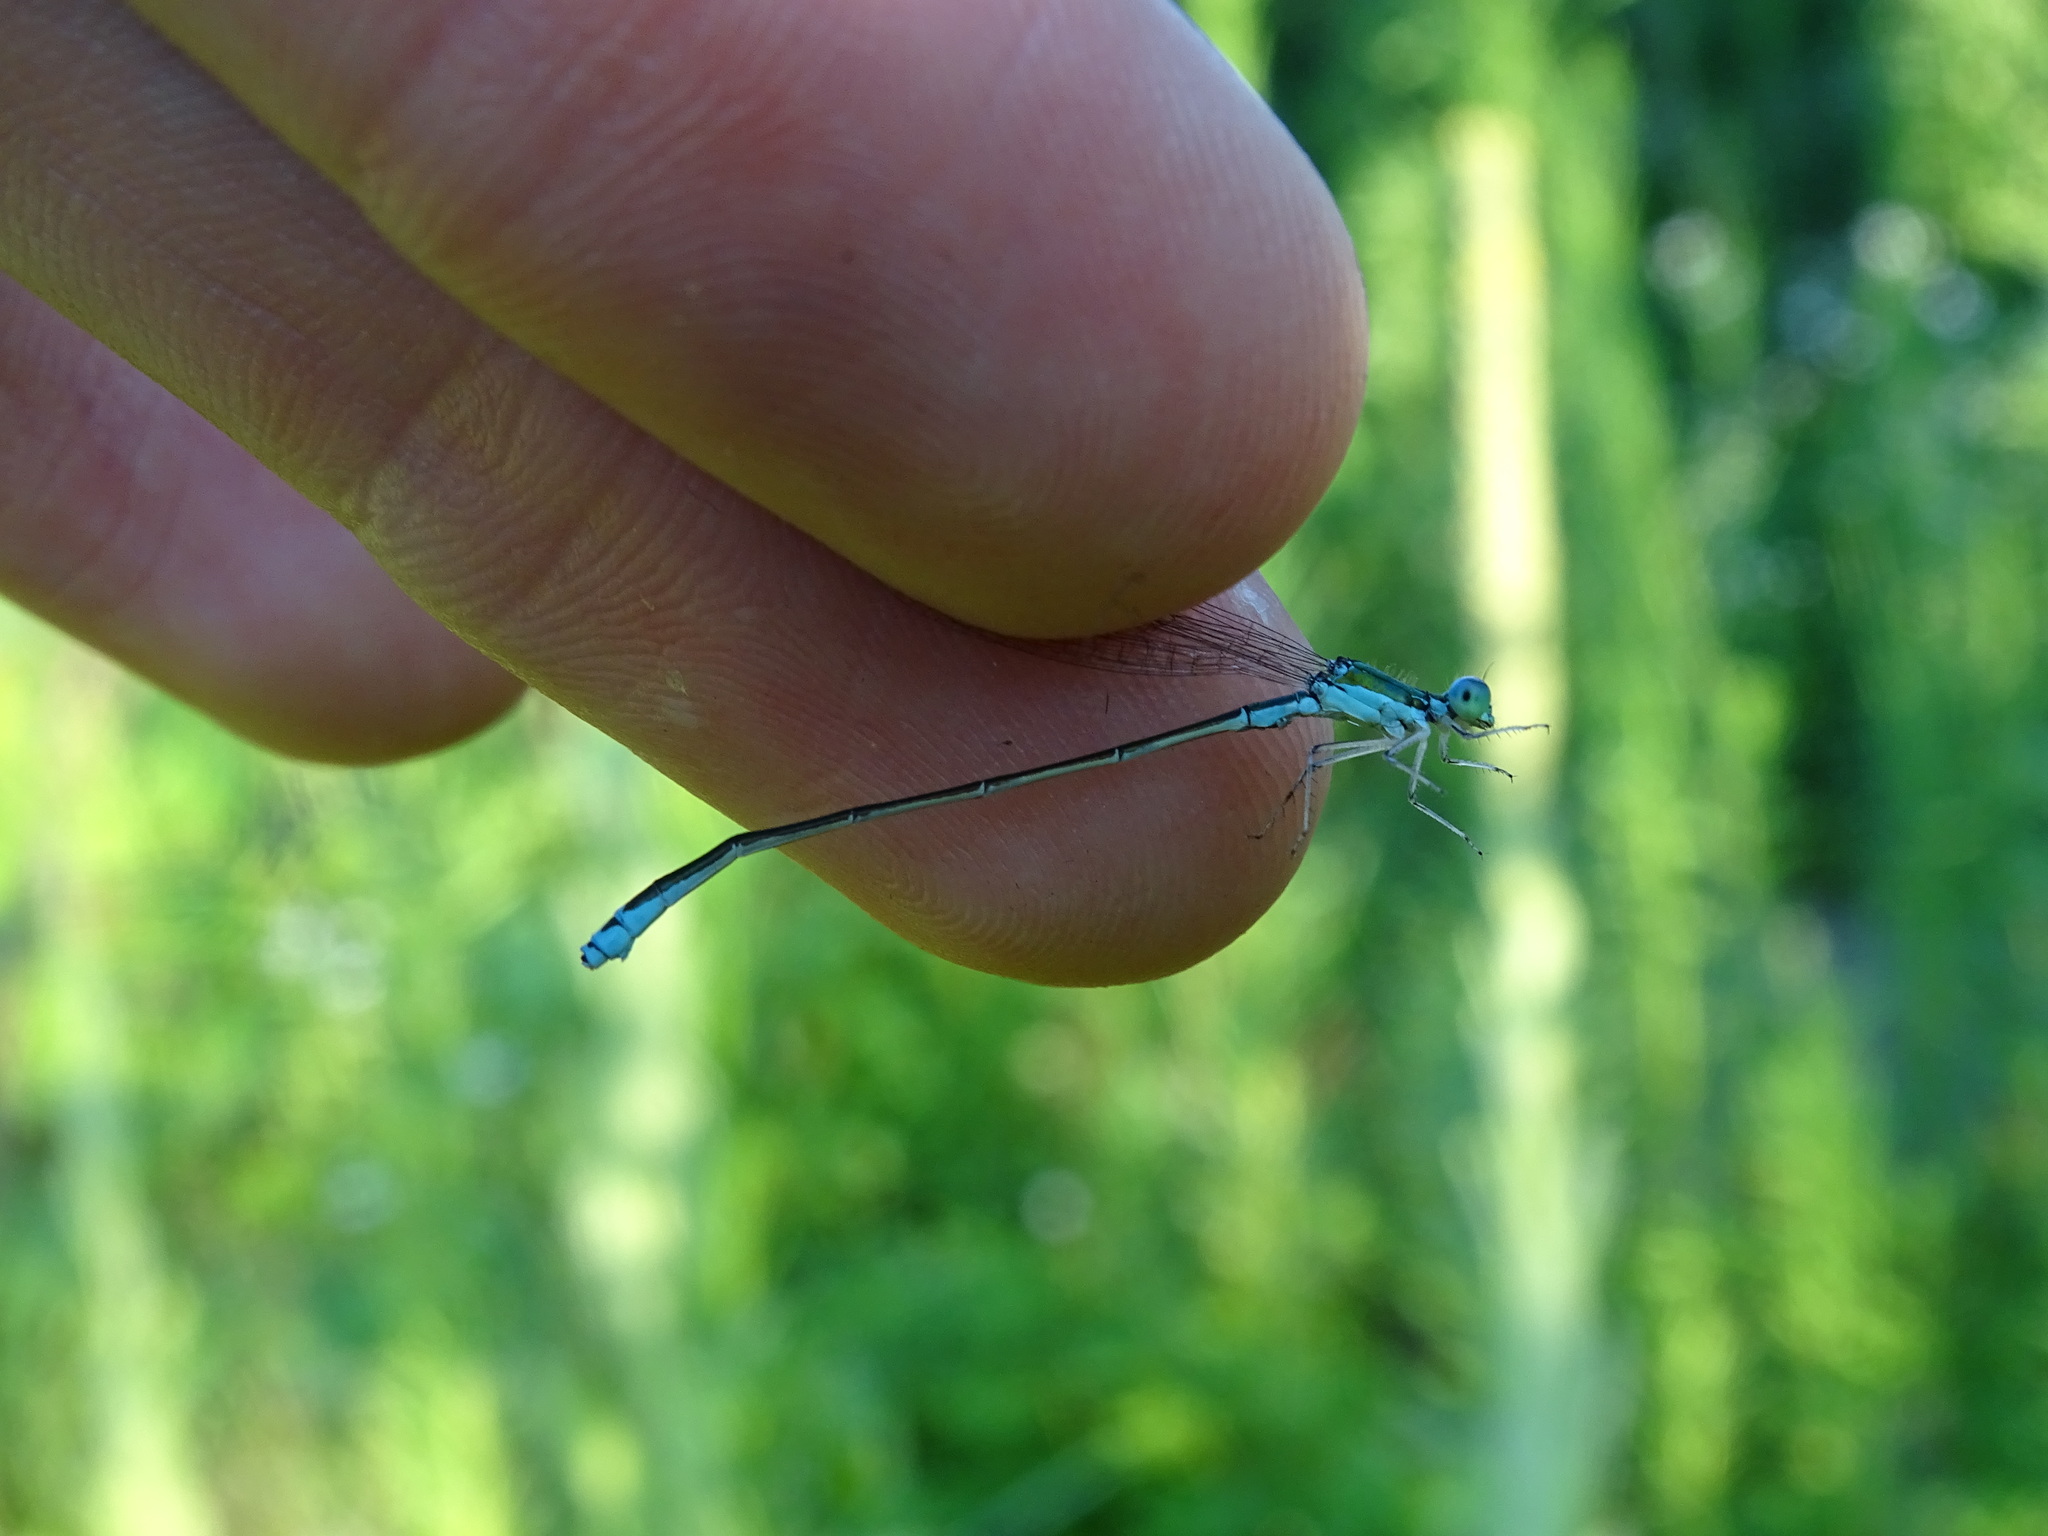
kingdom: Animalia
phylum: Arthropoda
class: Insecta
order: Odonata
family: Coenagrionidae
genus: Nehalennia
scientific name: Nehalennia irene
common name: Sedge sprite
